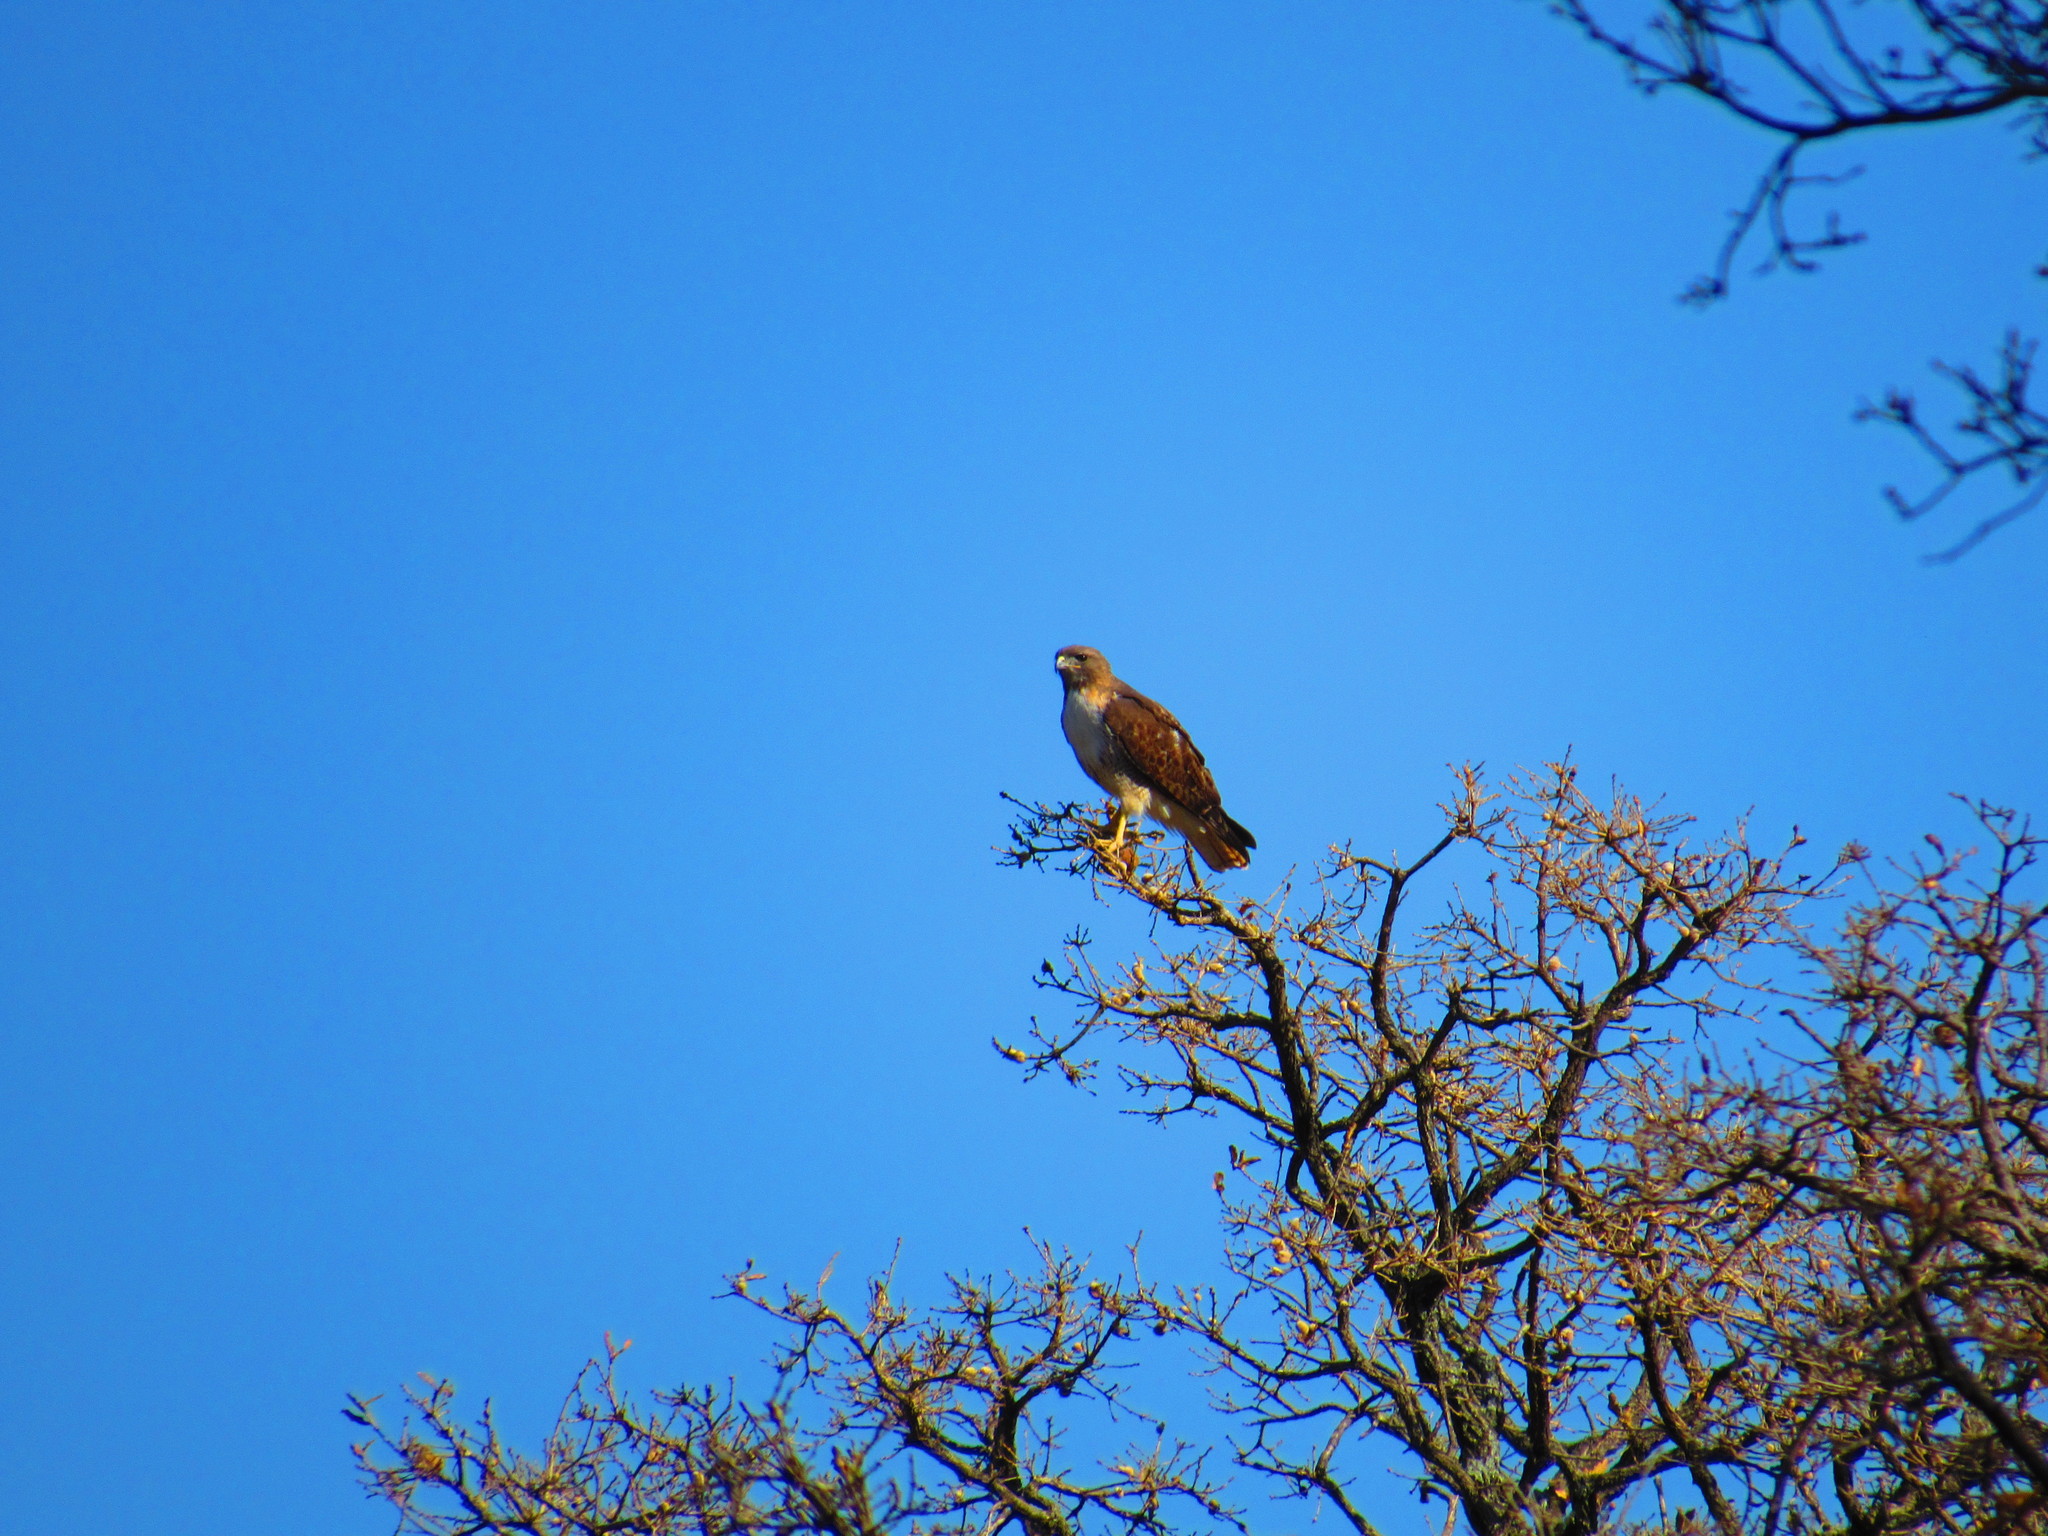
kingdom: Animalia
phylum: Chordata
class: Aves
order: Accipitriformes
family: Accipitridae
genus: Buteo
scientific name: Buteo jamaicensis
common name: Red-tailed hawk
